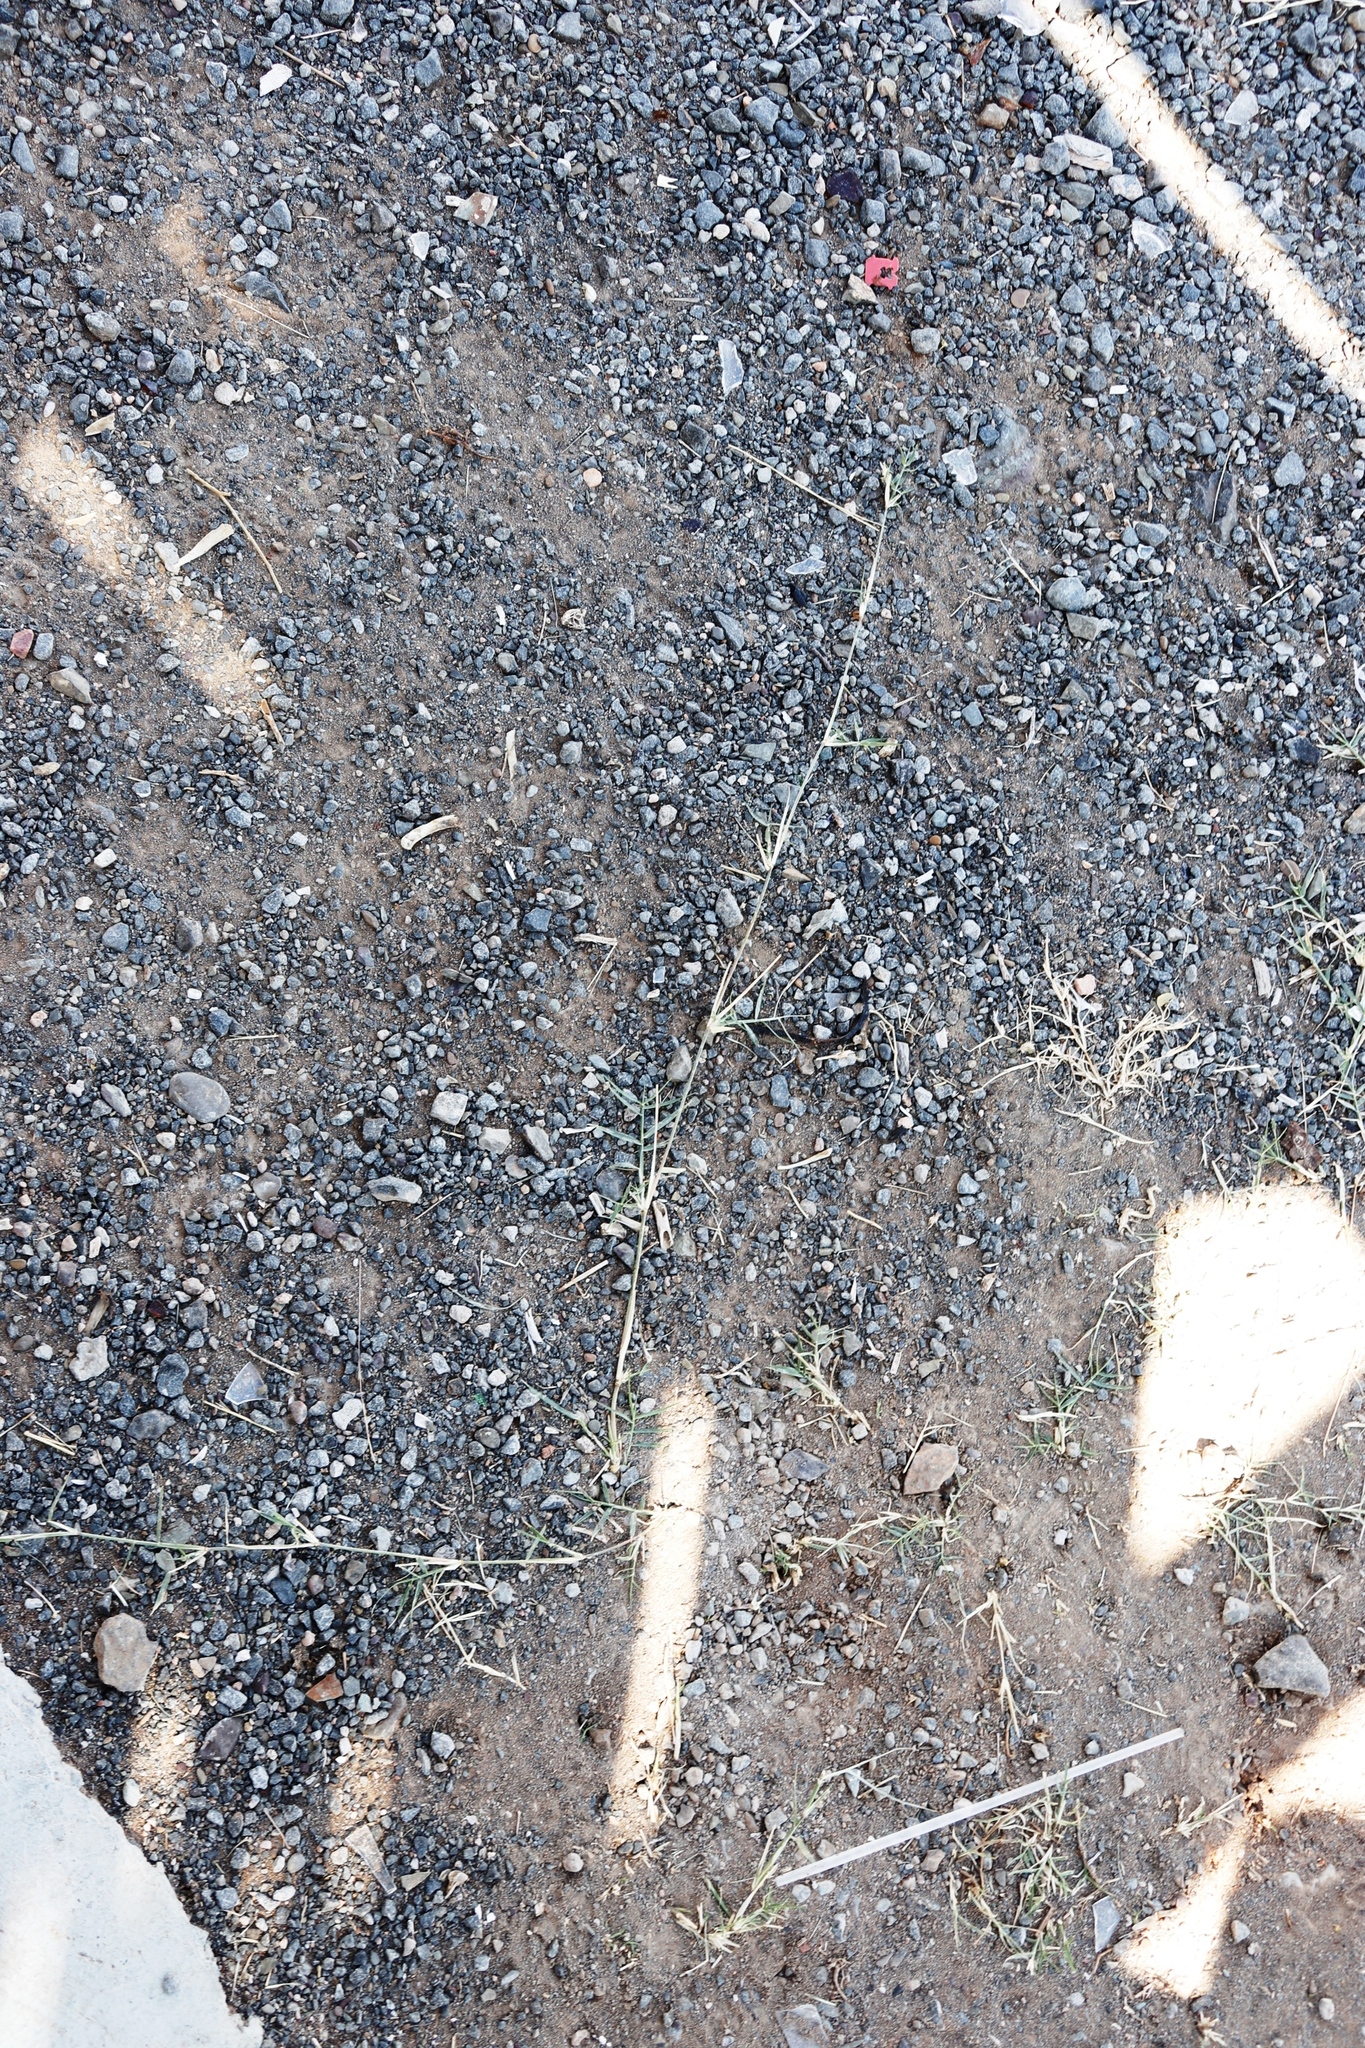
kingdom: Plantae
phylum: Tracheophyta
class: Liliopsida
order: Poales
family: Poaceae
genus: Cynodon
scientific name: Cynodon dactylon
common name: Bermuda grass
